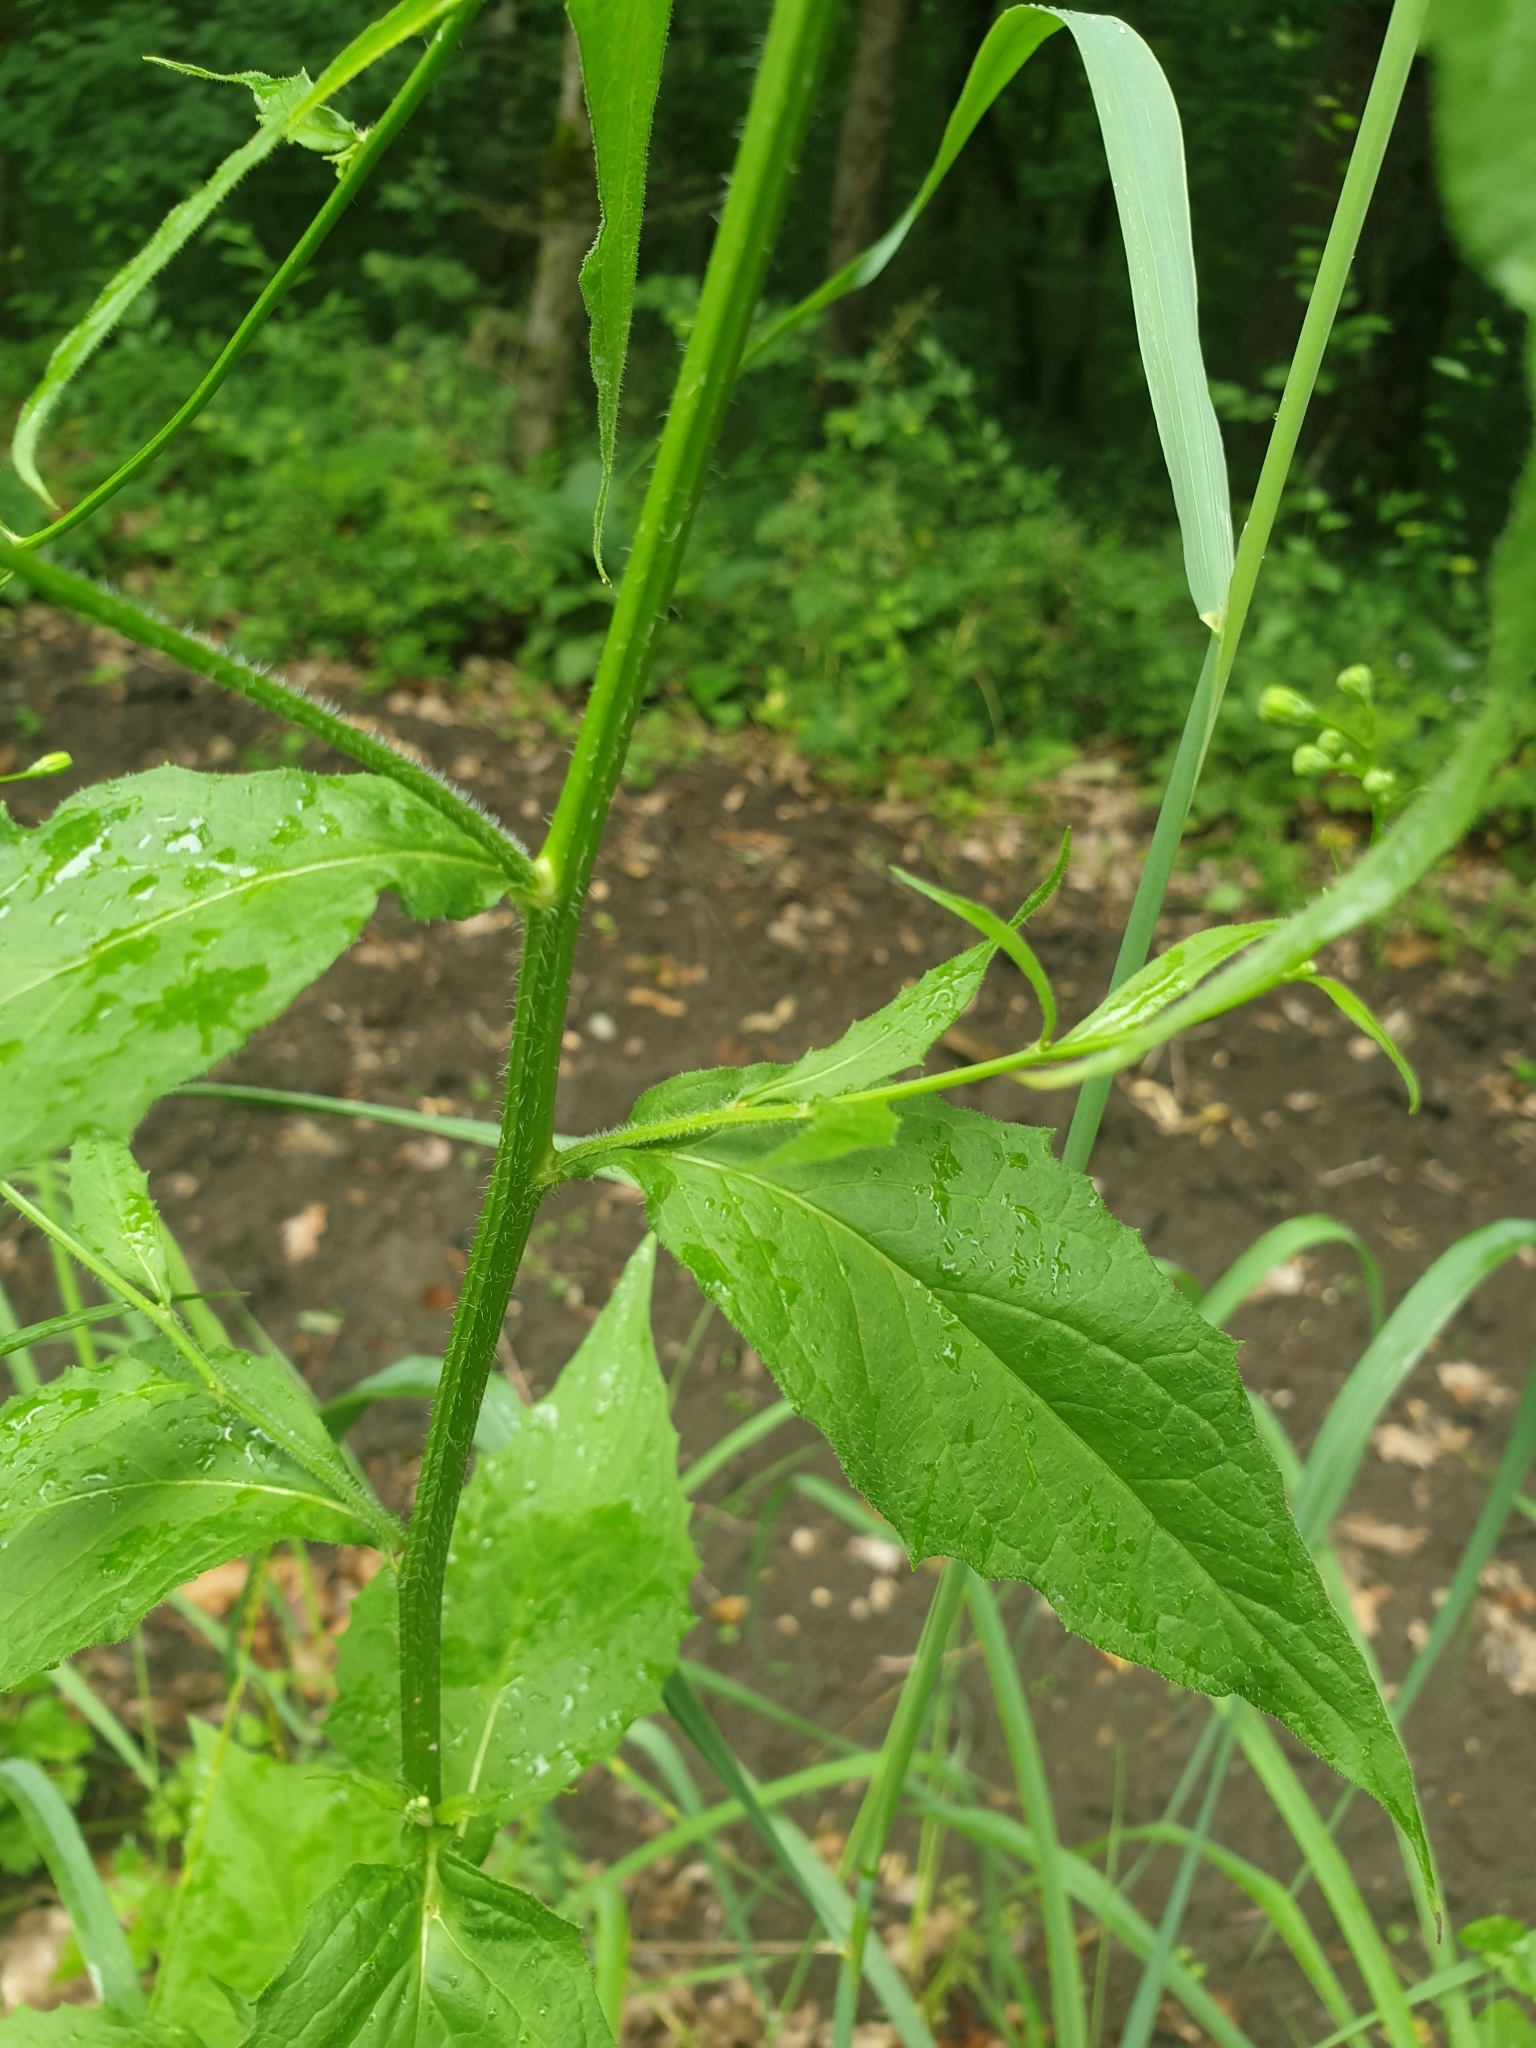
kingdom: Plantae
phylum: Tracheophyta
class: Magnoliopsida
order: Asterales
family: Asteraceae
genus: Lapsana
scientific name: Lapsana communis
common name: Nipplewort
